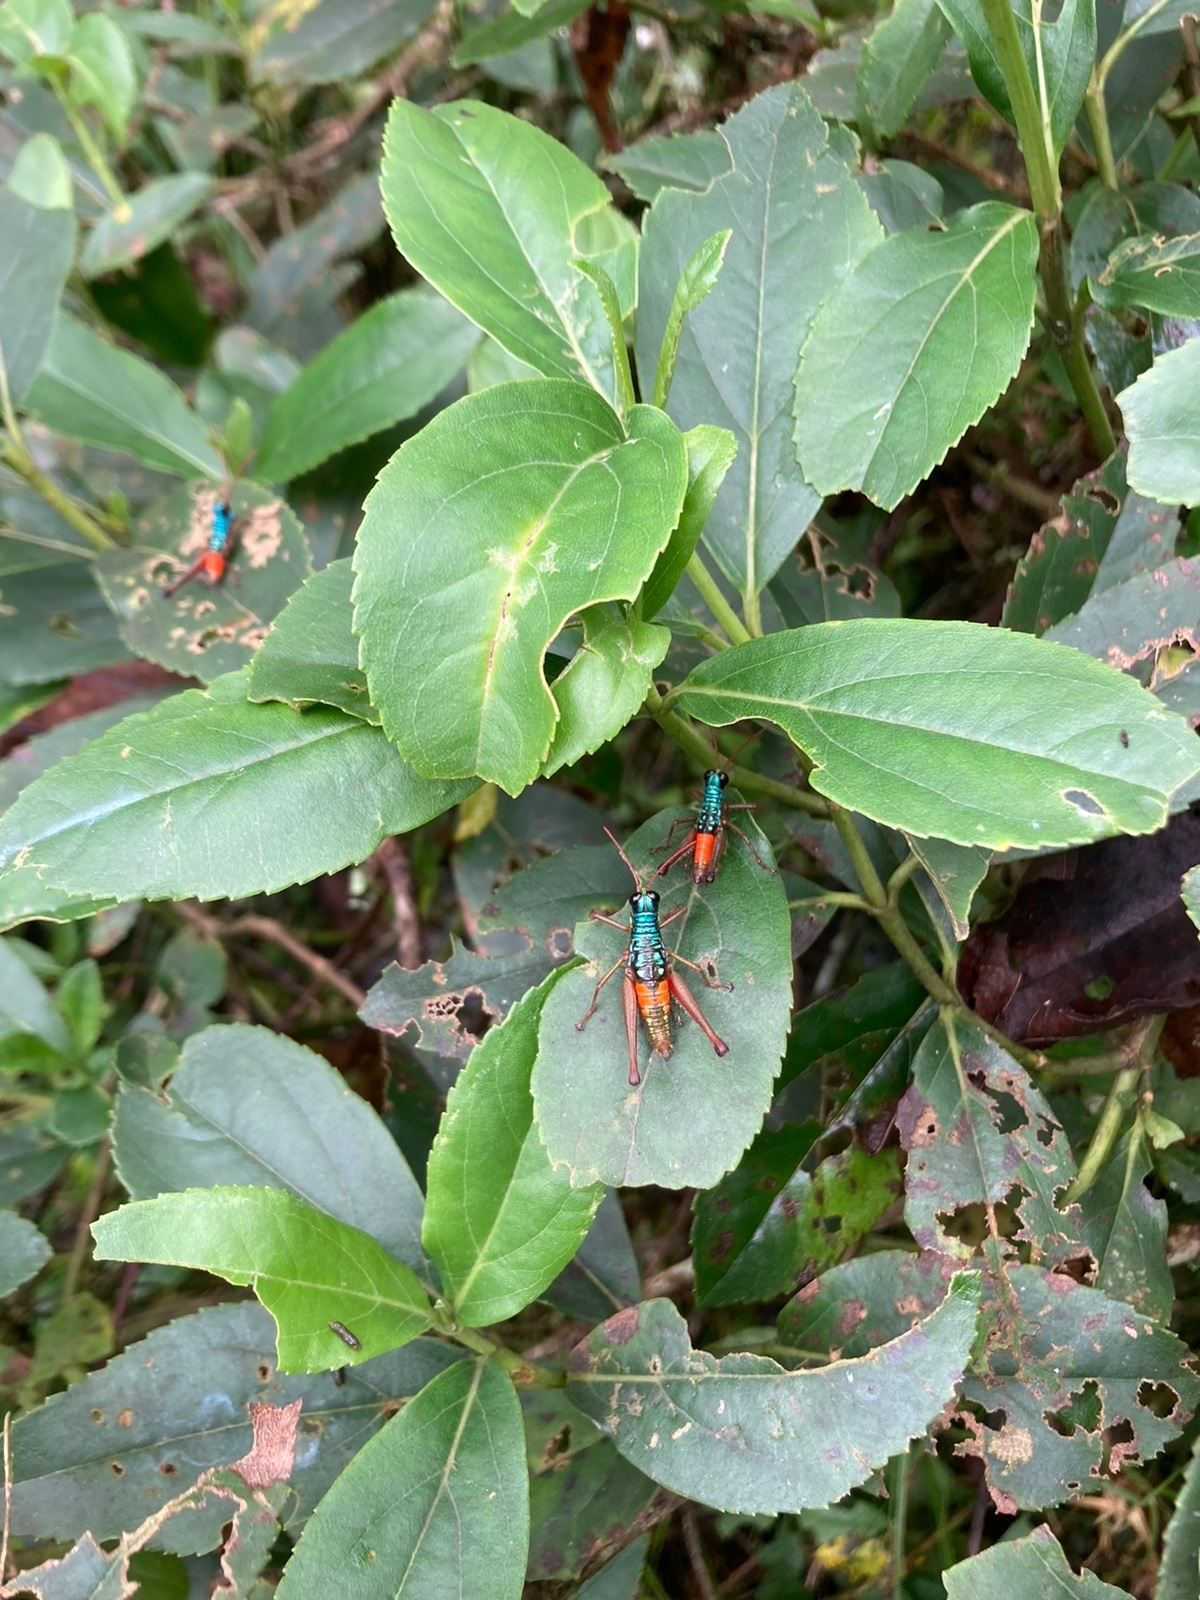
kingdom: Animalia
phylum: Arthropoda
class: Insecta
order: Orthoptera
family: Acrididae
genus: Opaonella
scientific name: Opaonella tenuis
